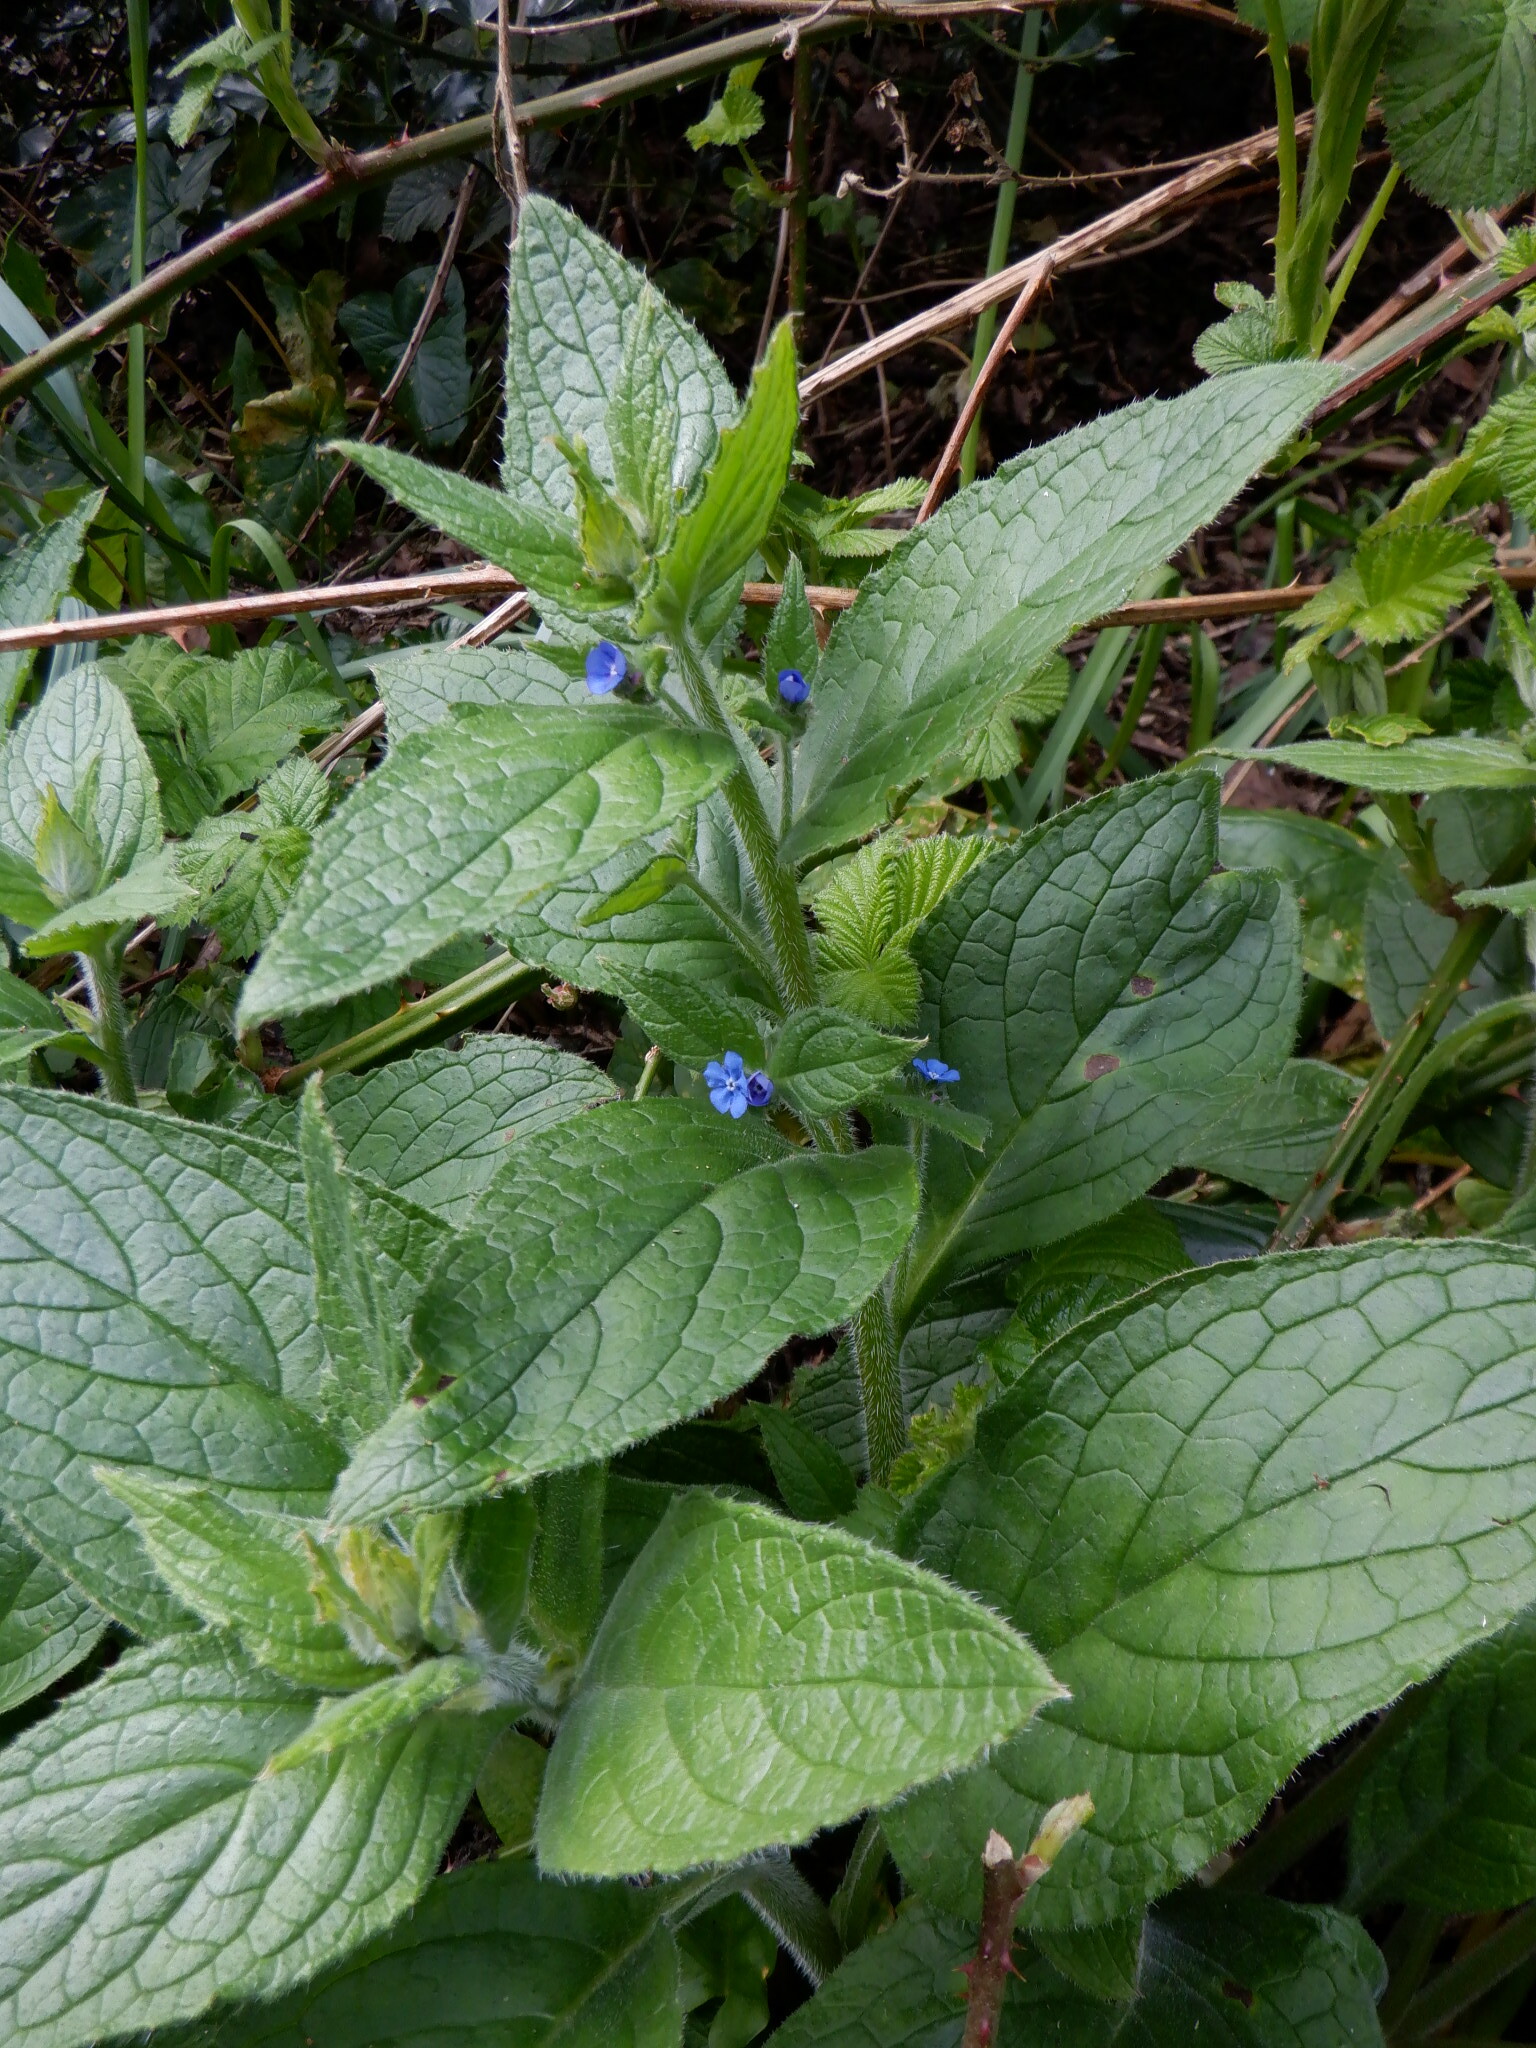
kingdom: Plantae
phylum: Tracheophyta
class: Magnoliopsida
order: Boraginales
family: Boraginaceae
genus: Pentaglottis
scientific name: Pentaglottis sempervirens
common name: Green alkanet
